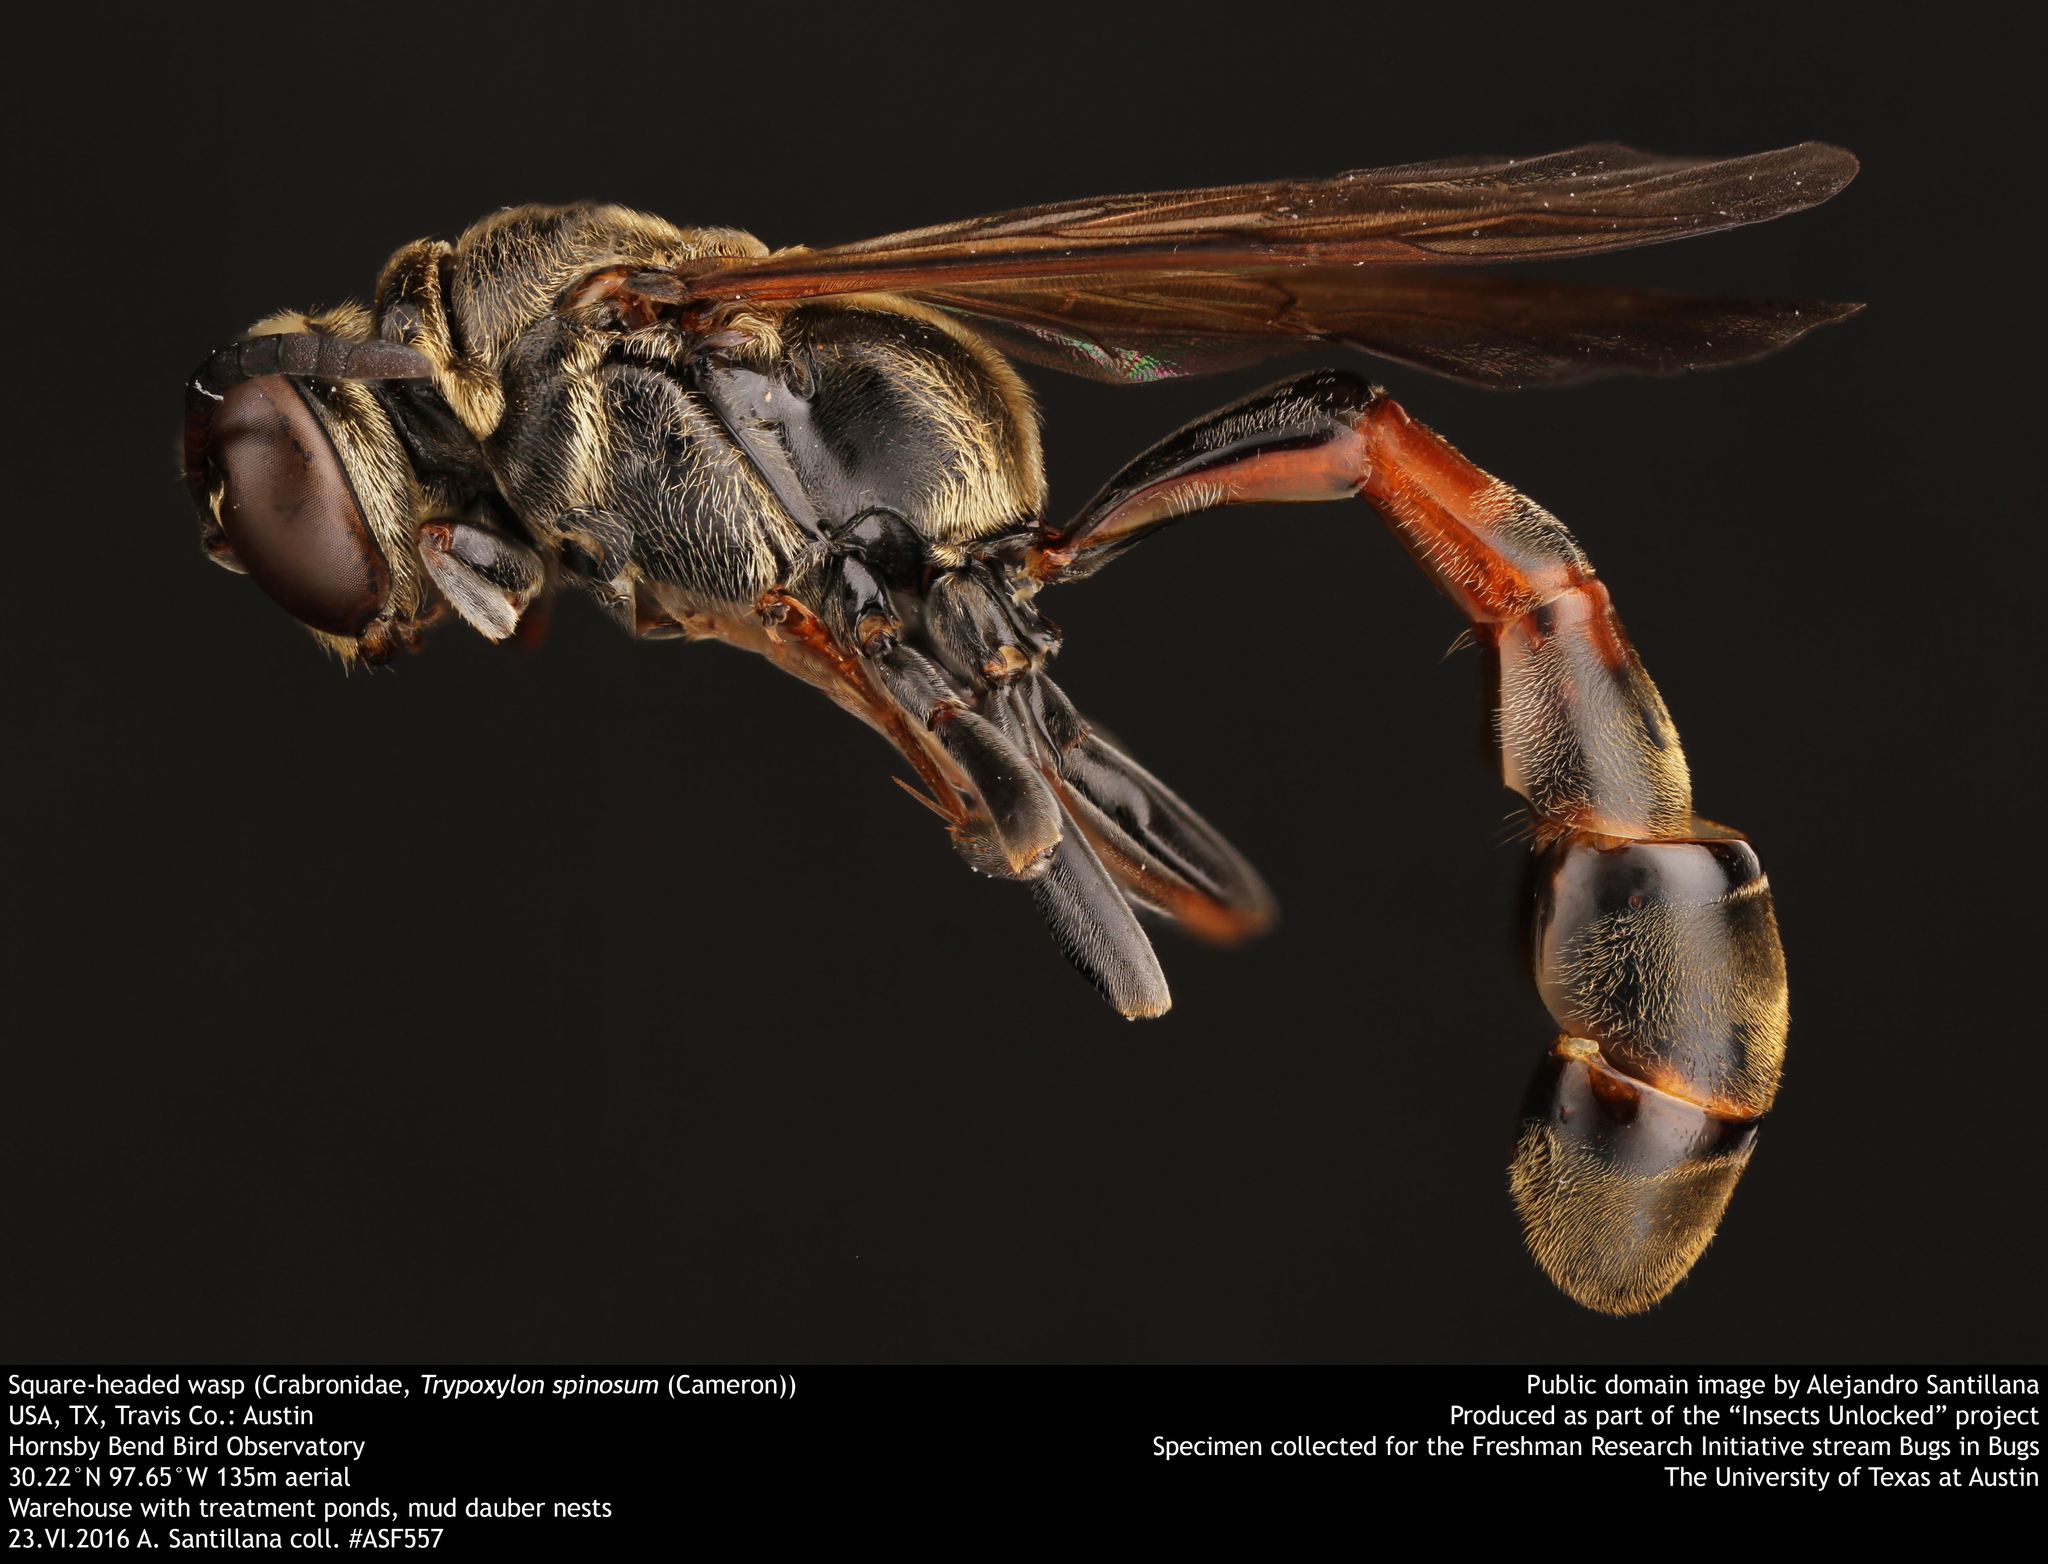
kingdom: Animalia
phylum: Arthropoda
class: Insecta
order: Hymenoptera
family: Crabronidae
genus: Trypoxylon
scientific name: Trypoxylon spinosum
